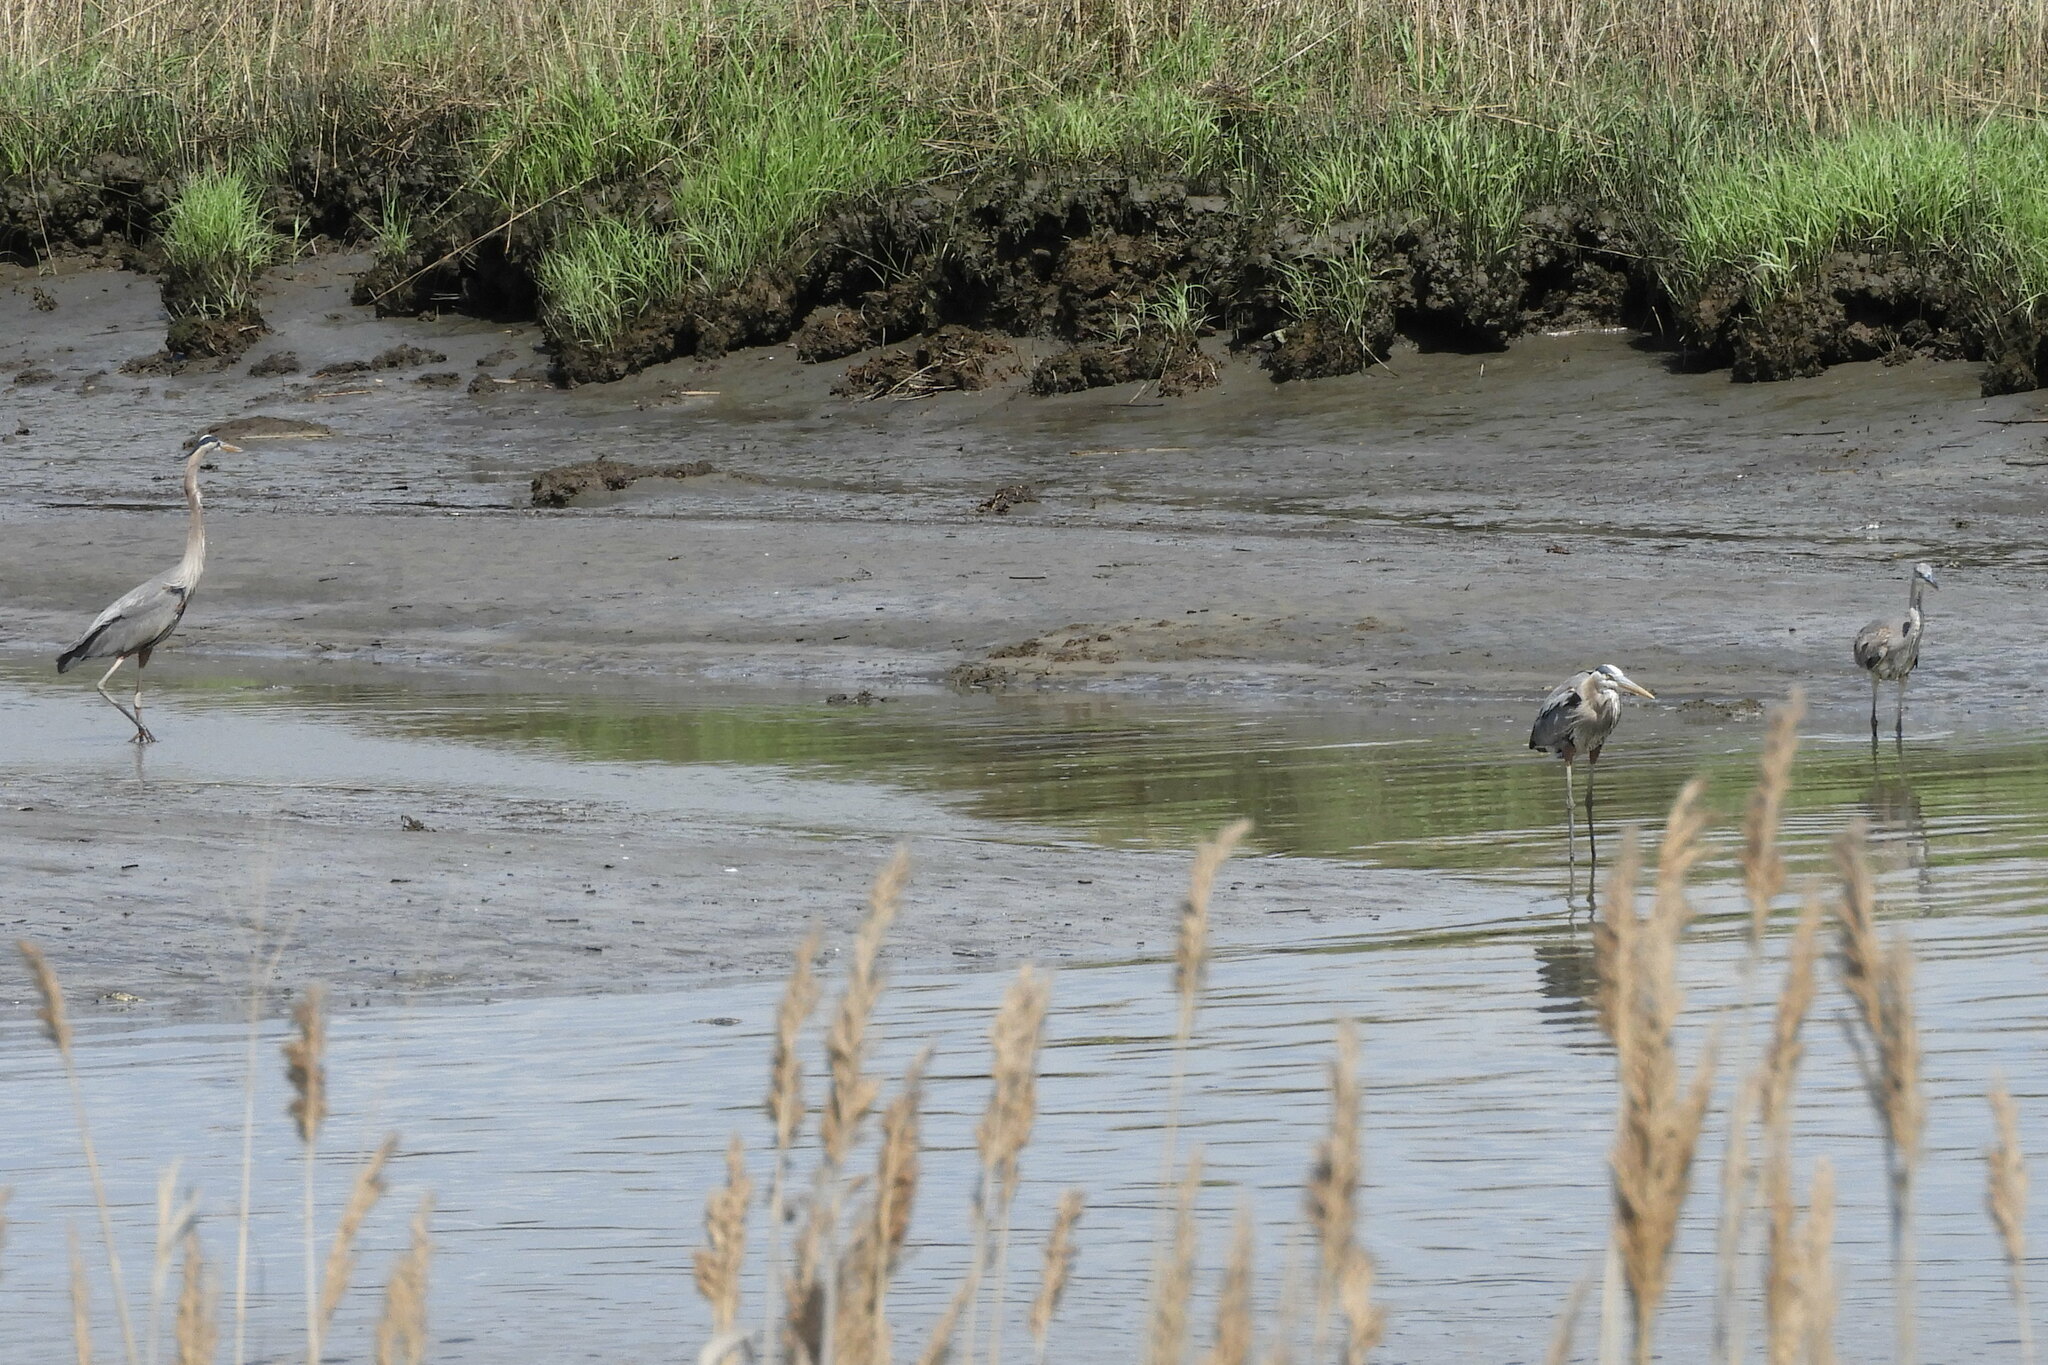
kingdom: Animalia
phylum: Chordata
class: Aves
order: Pelecaniformes
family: Ardeidae
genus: Ardea
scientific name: Ardea herodias
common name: Great blue heron
